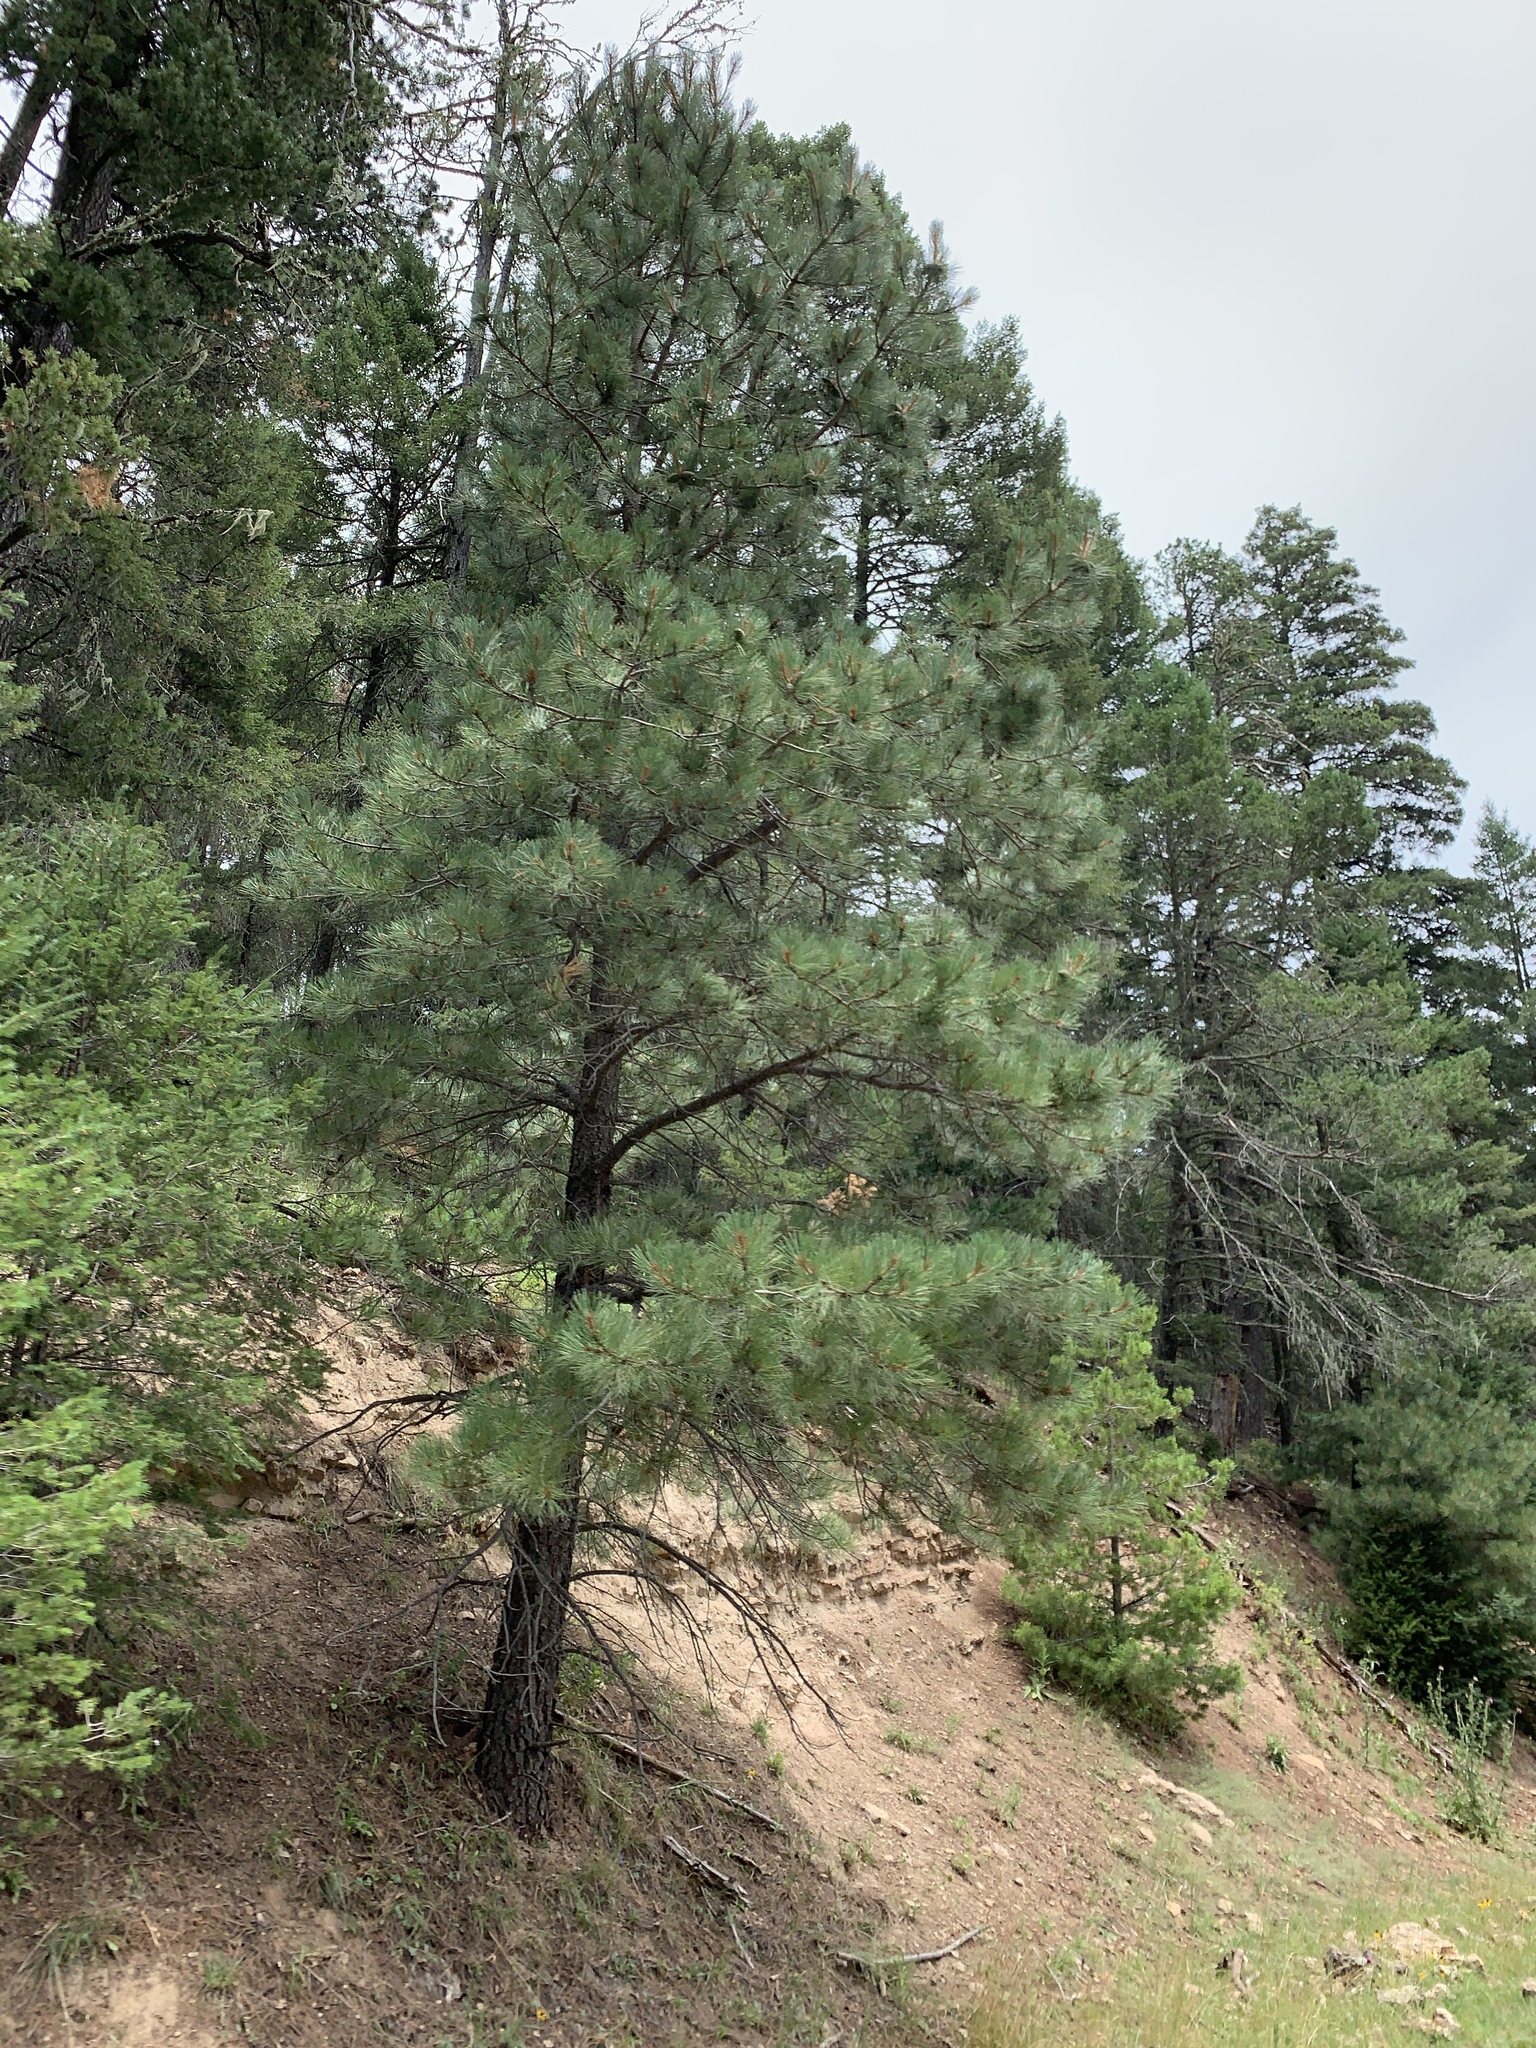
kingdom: Plantae
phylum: Tracheophyta
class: Pinopsida
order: Pinales
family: Pinaceae
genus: Pinus
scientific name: Pinus ponderosa
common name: Western yellow-pine
